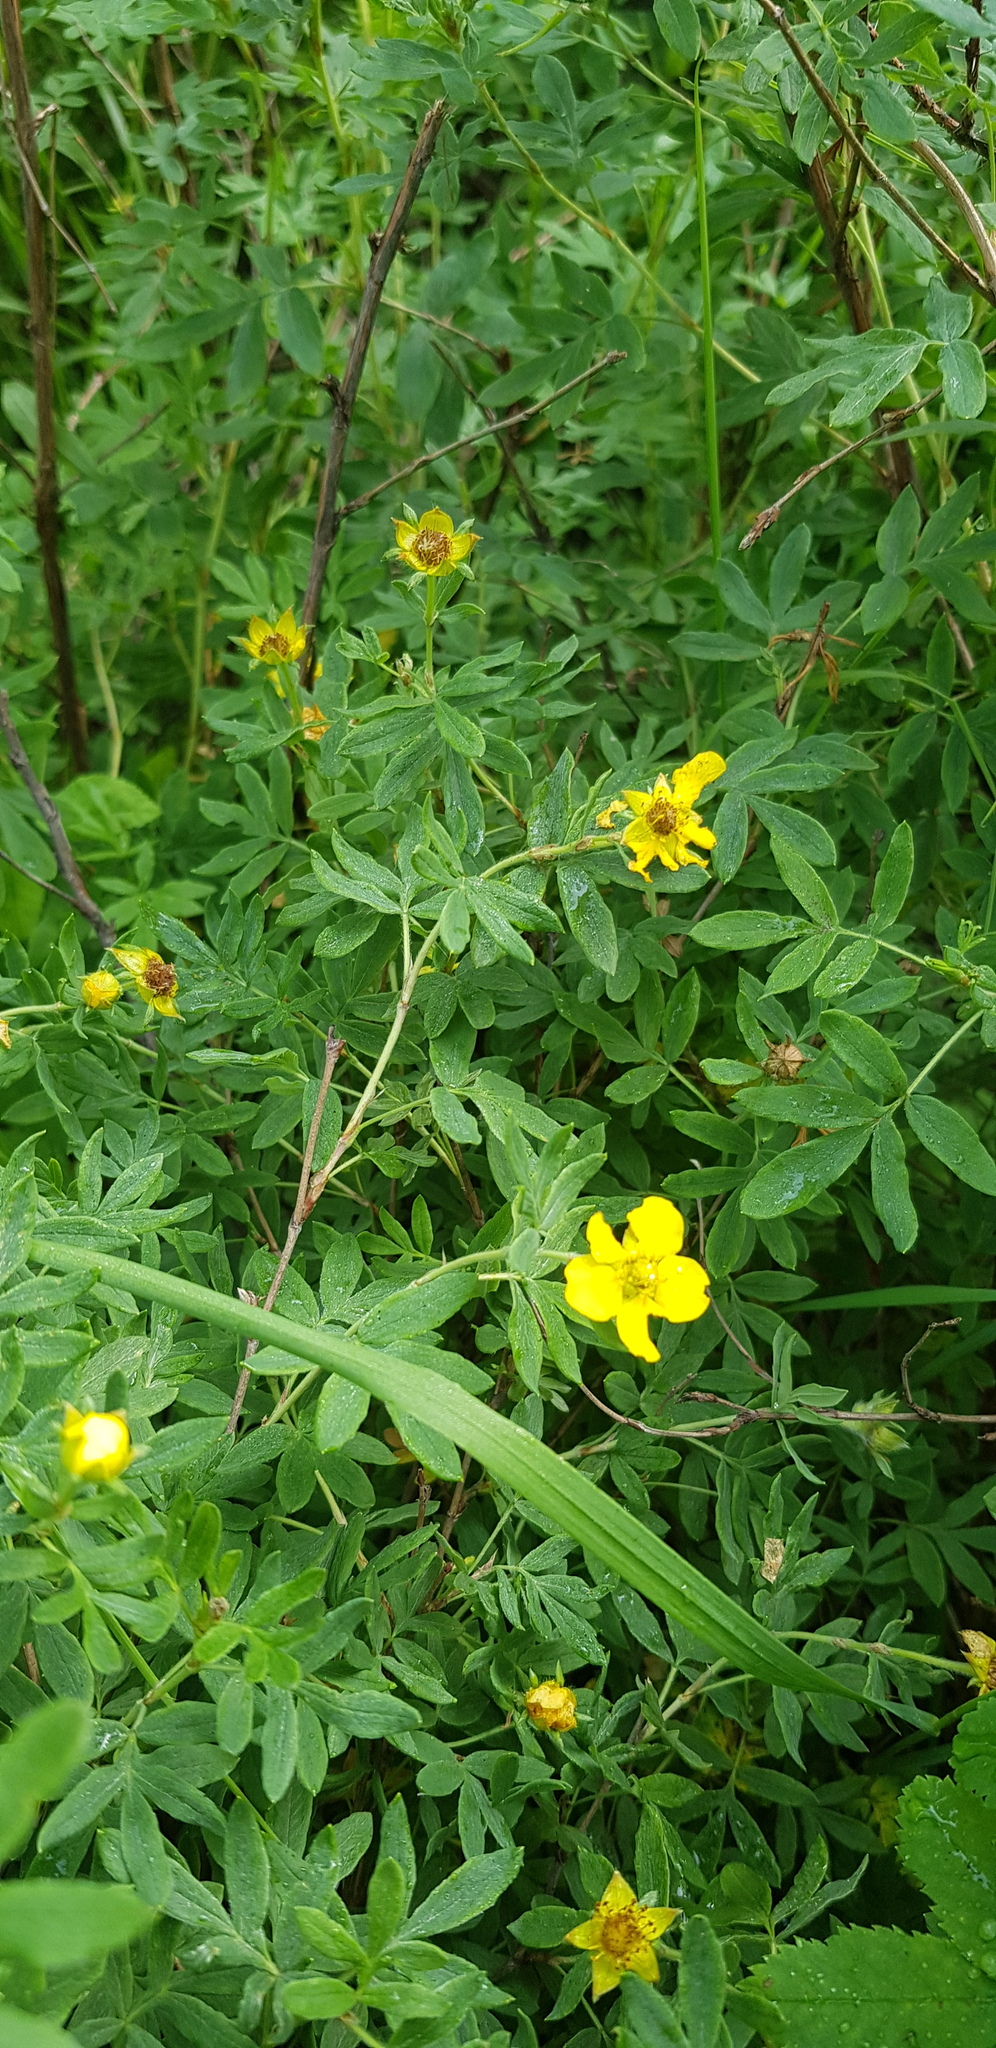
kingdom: Plantae
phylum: Tracheophyta
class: Magnoliopsida
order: Rosales
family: Rosaceae
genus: Dasiphora
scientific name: Dasiphora fruticosa
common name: Shrubby cinquefoil
